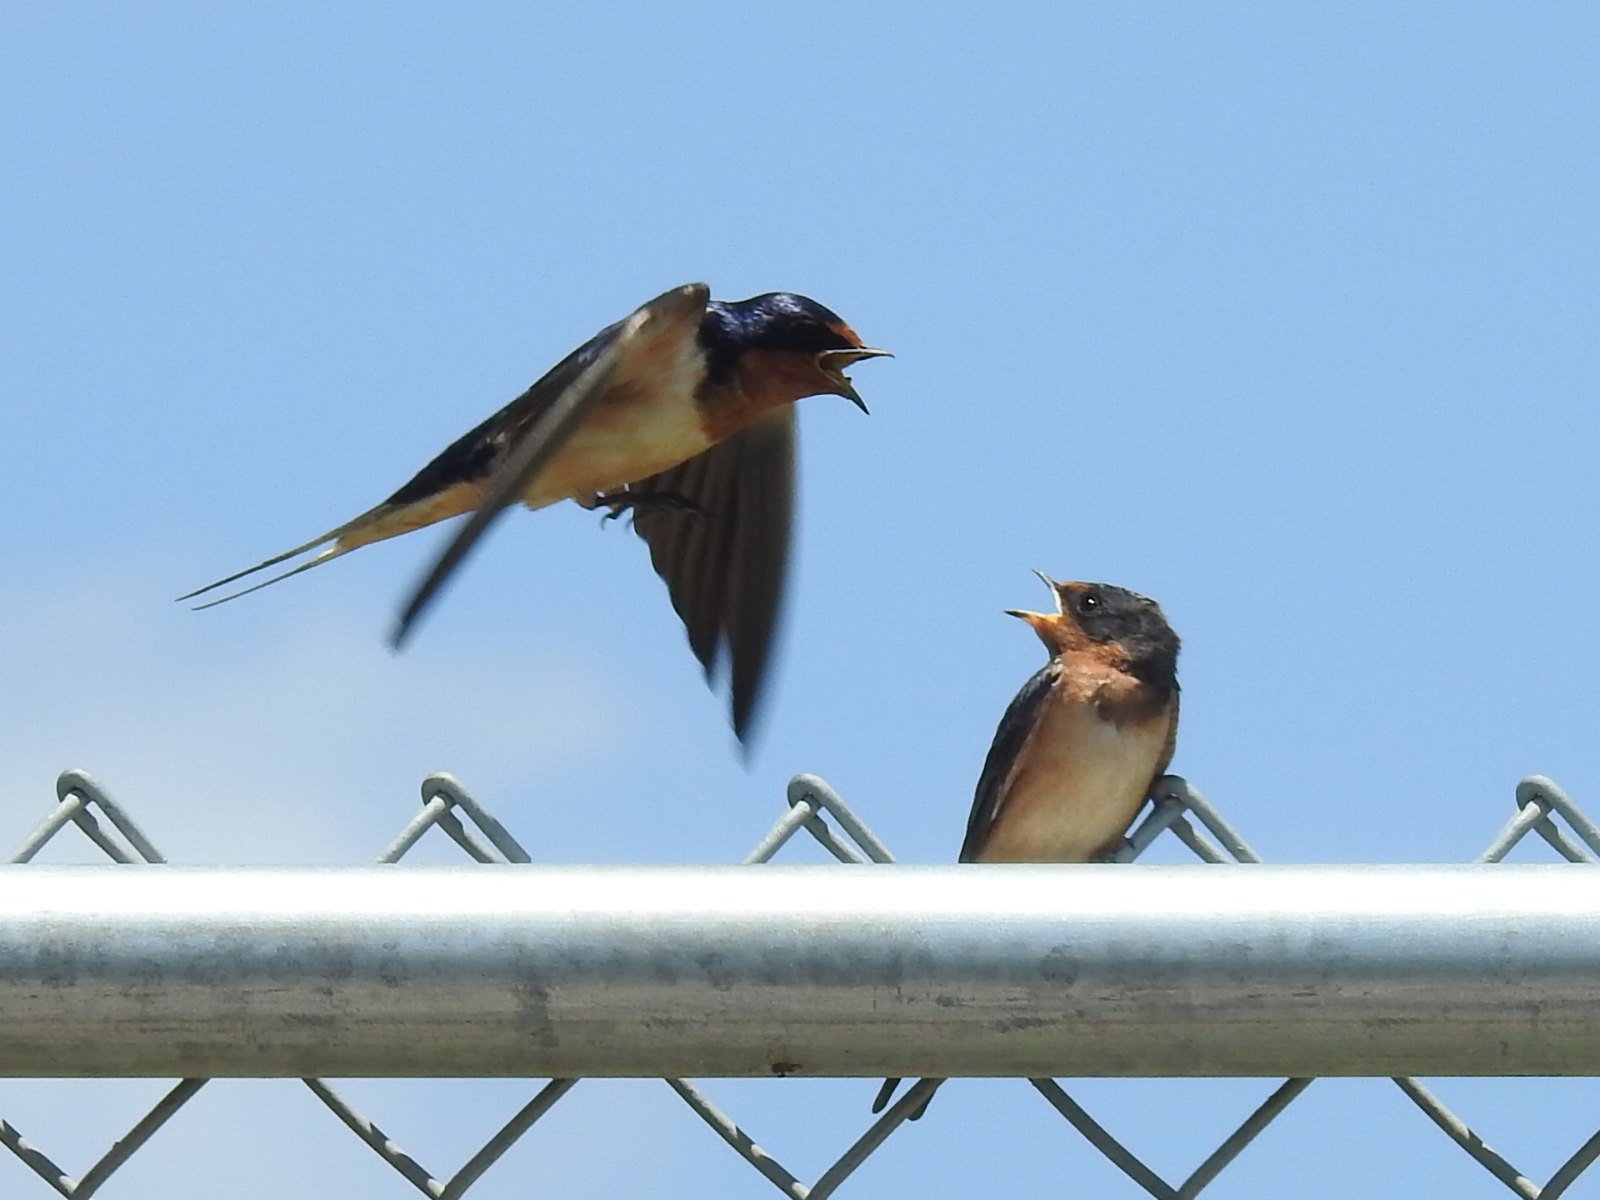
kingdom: Animalia
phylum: Chordata
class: Aves
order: Passeriformes
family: Hirundinidae
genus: Hirundo
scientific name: Hirundo rustica
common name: Barn swallow
